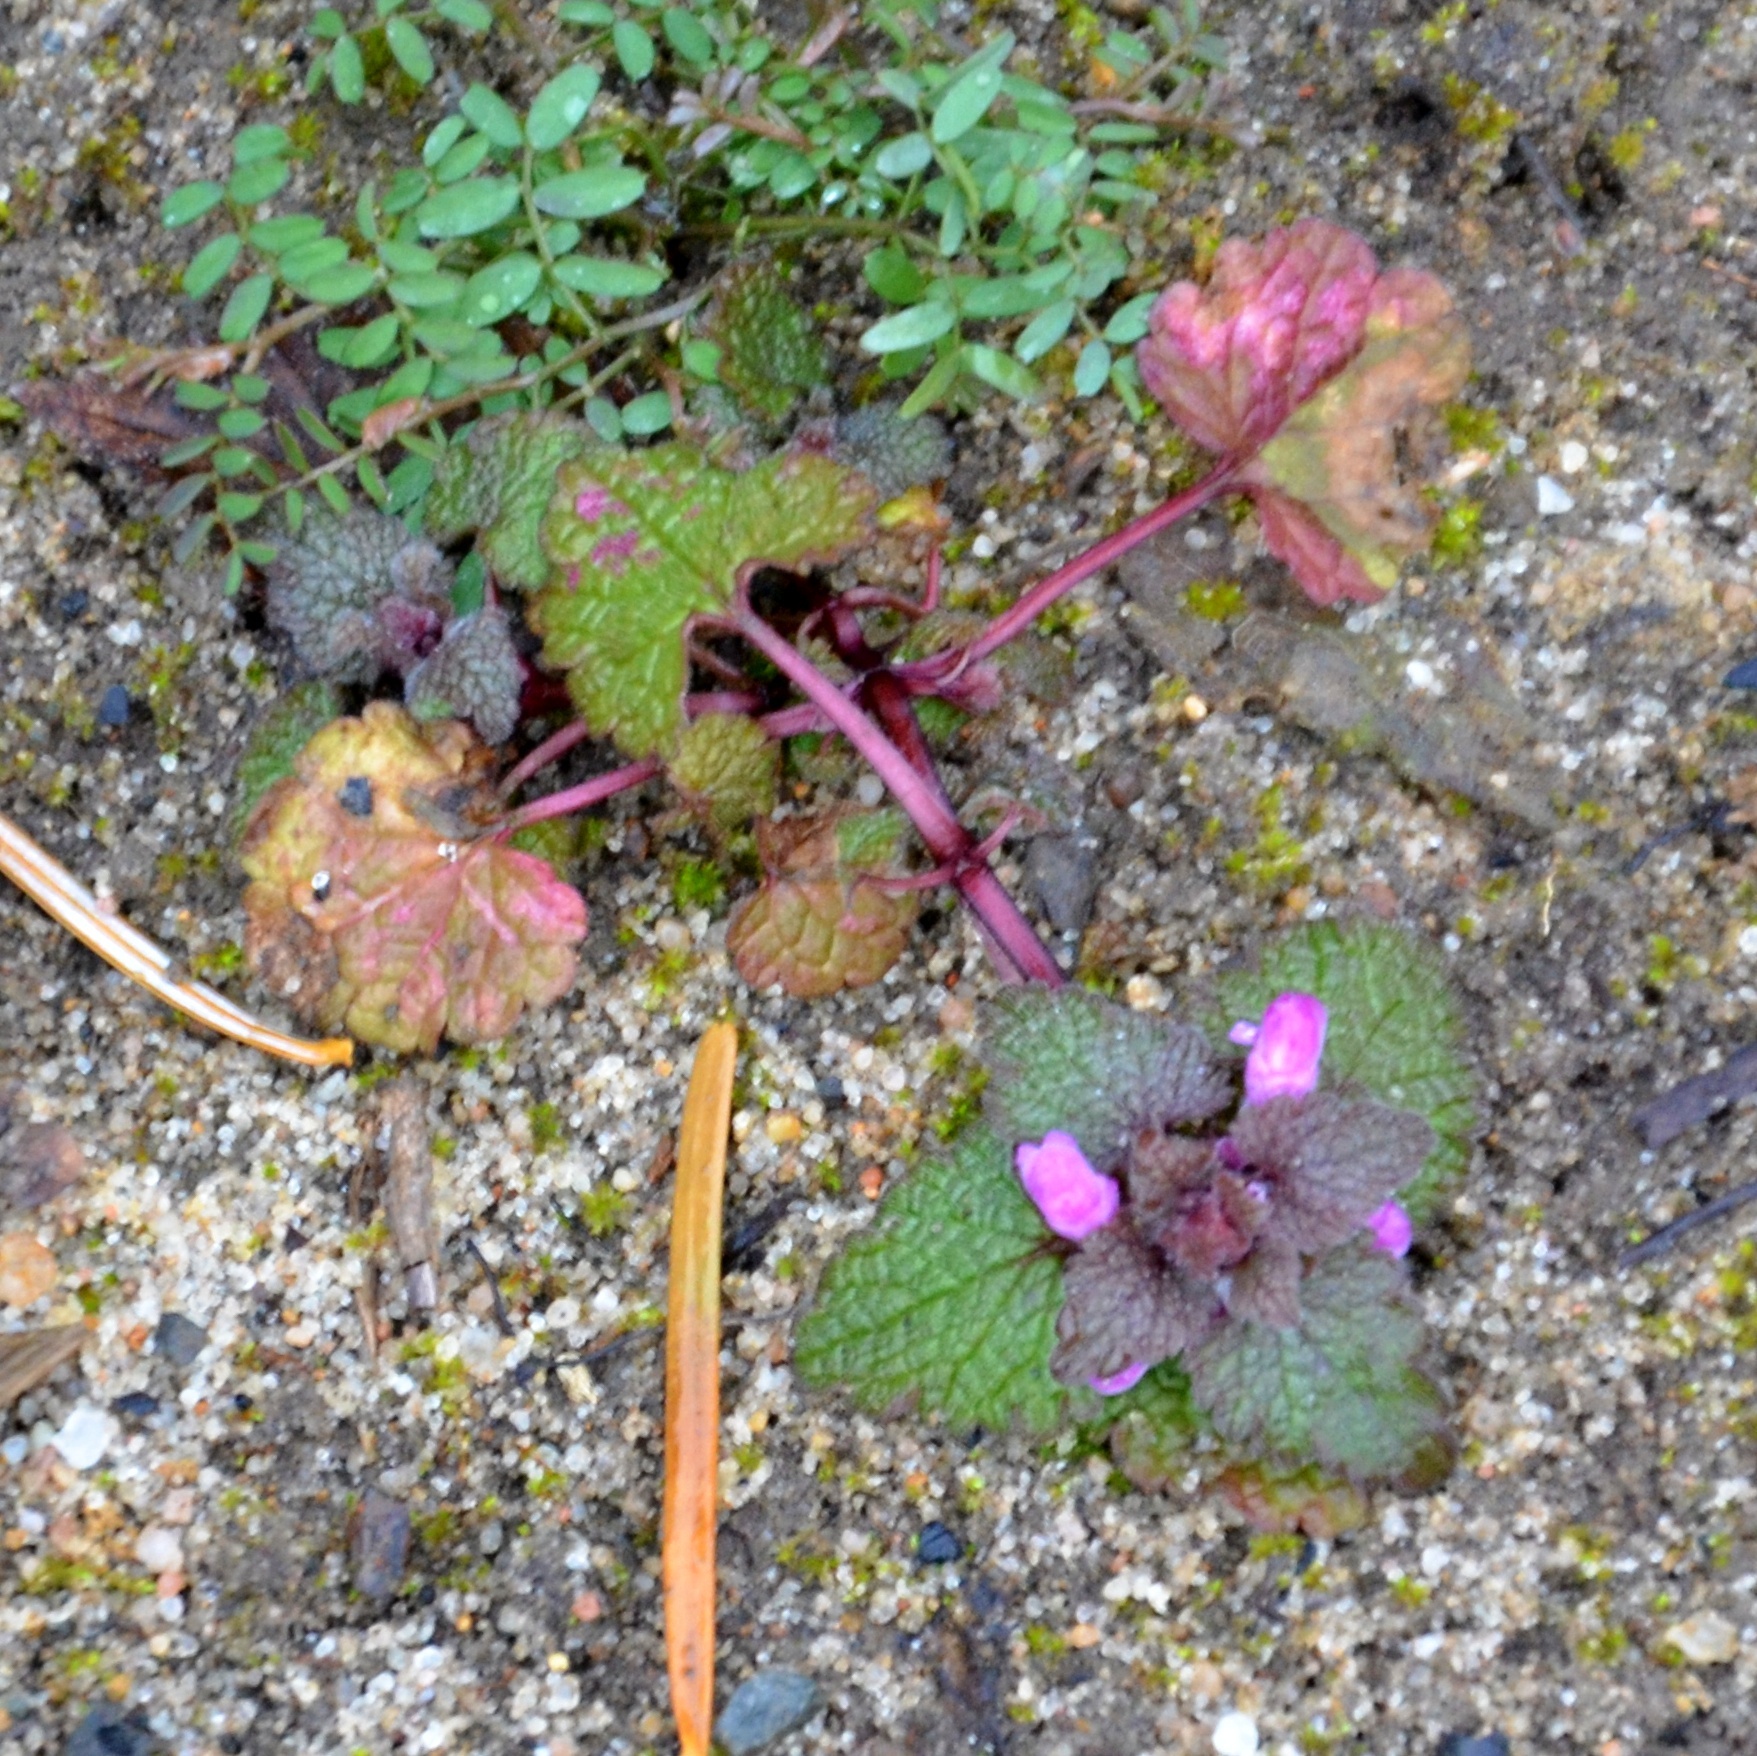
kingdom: Plantae
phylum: Tracheophyta
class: Magnoliopsida
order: Lamiales
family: Lamiaceae
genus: Lamium
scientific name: Lamium purpureum
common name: Red dead-nettle
